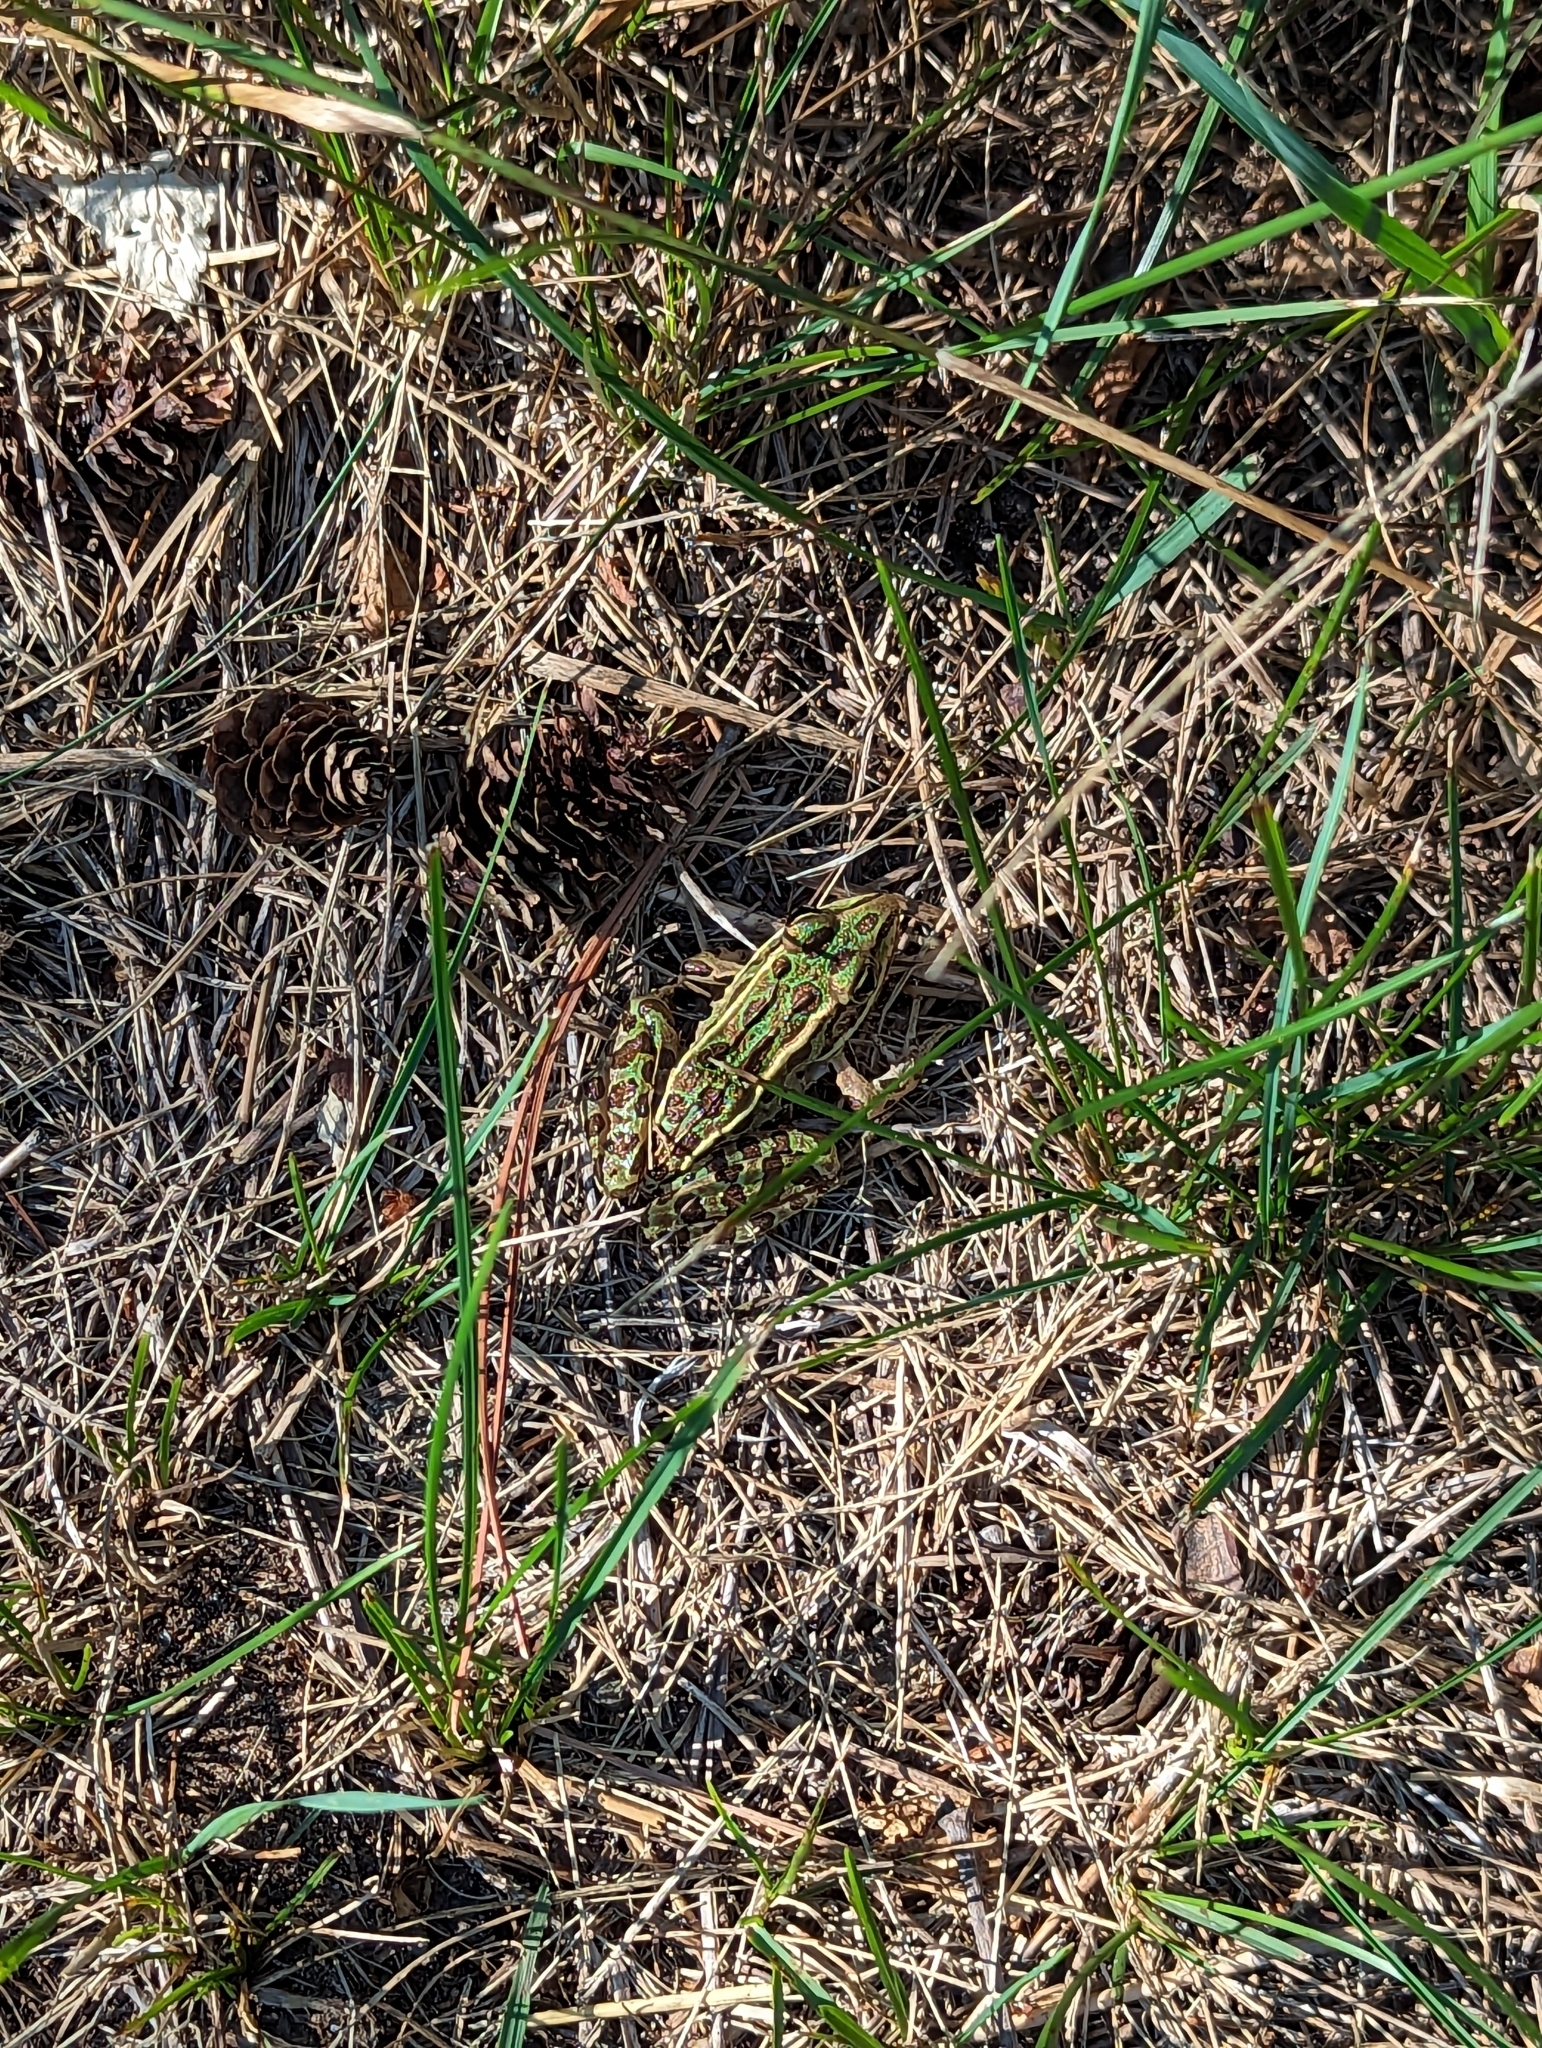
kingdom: Animalia
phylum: Chordata
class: Amphibia
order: Anura
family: Ranidae
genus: Lithobates
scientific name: Lithobates pipiens
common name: Northern leopard frog
